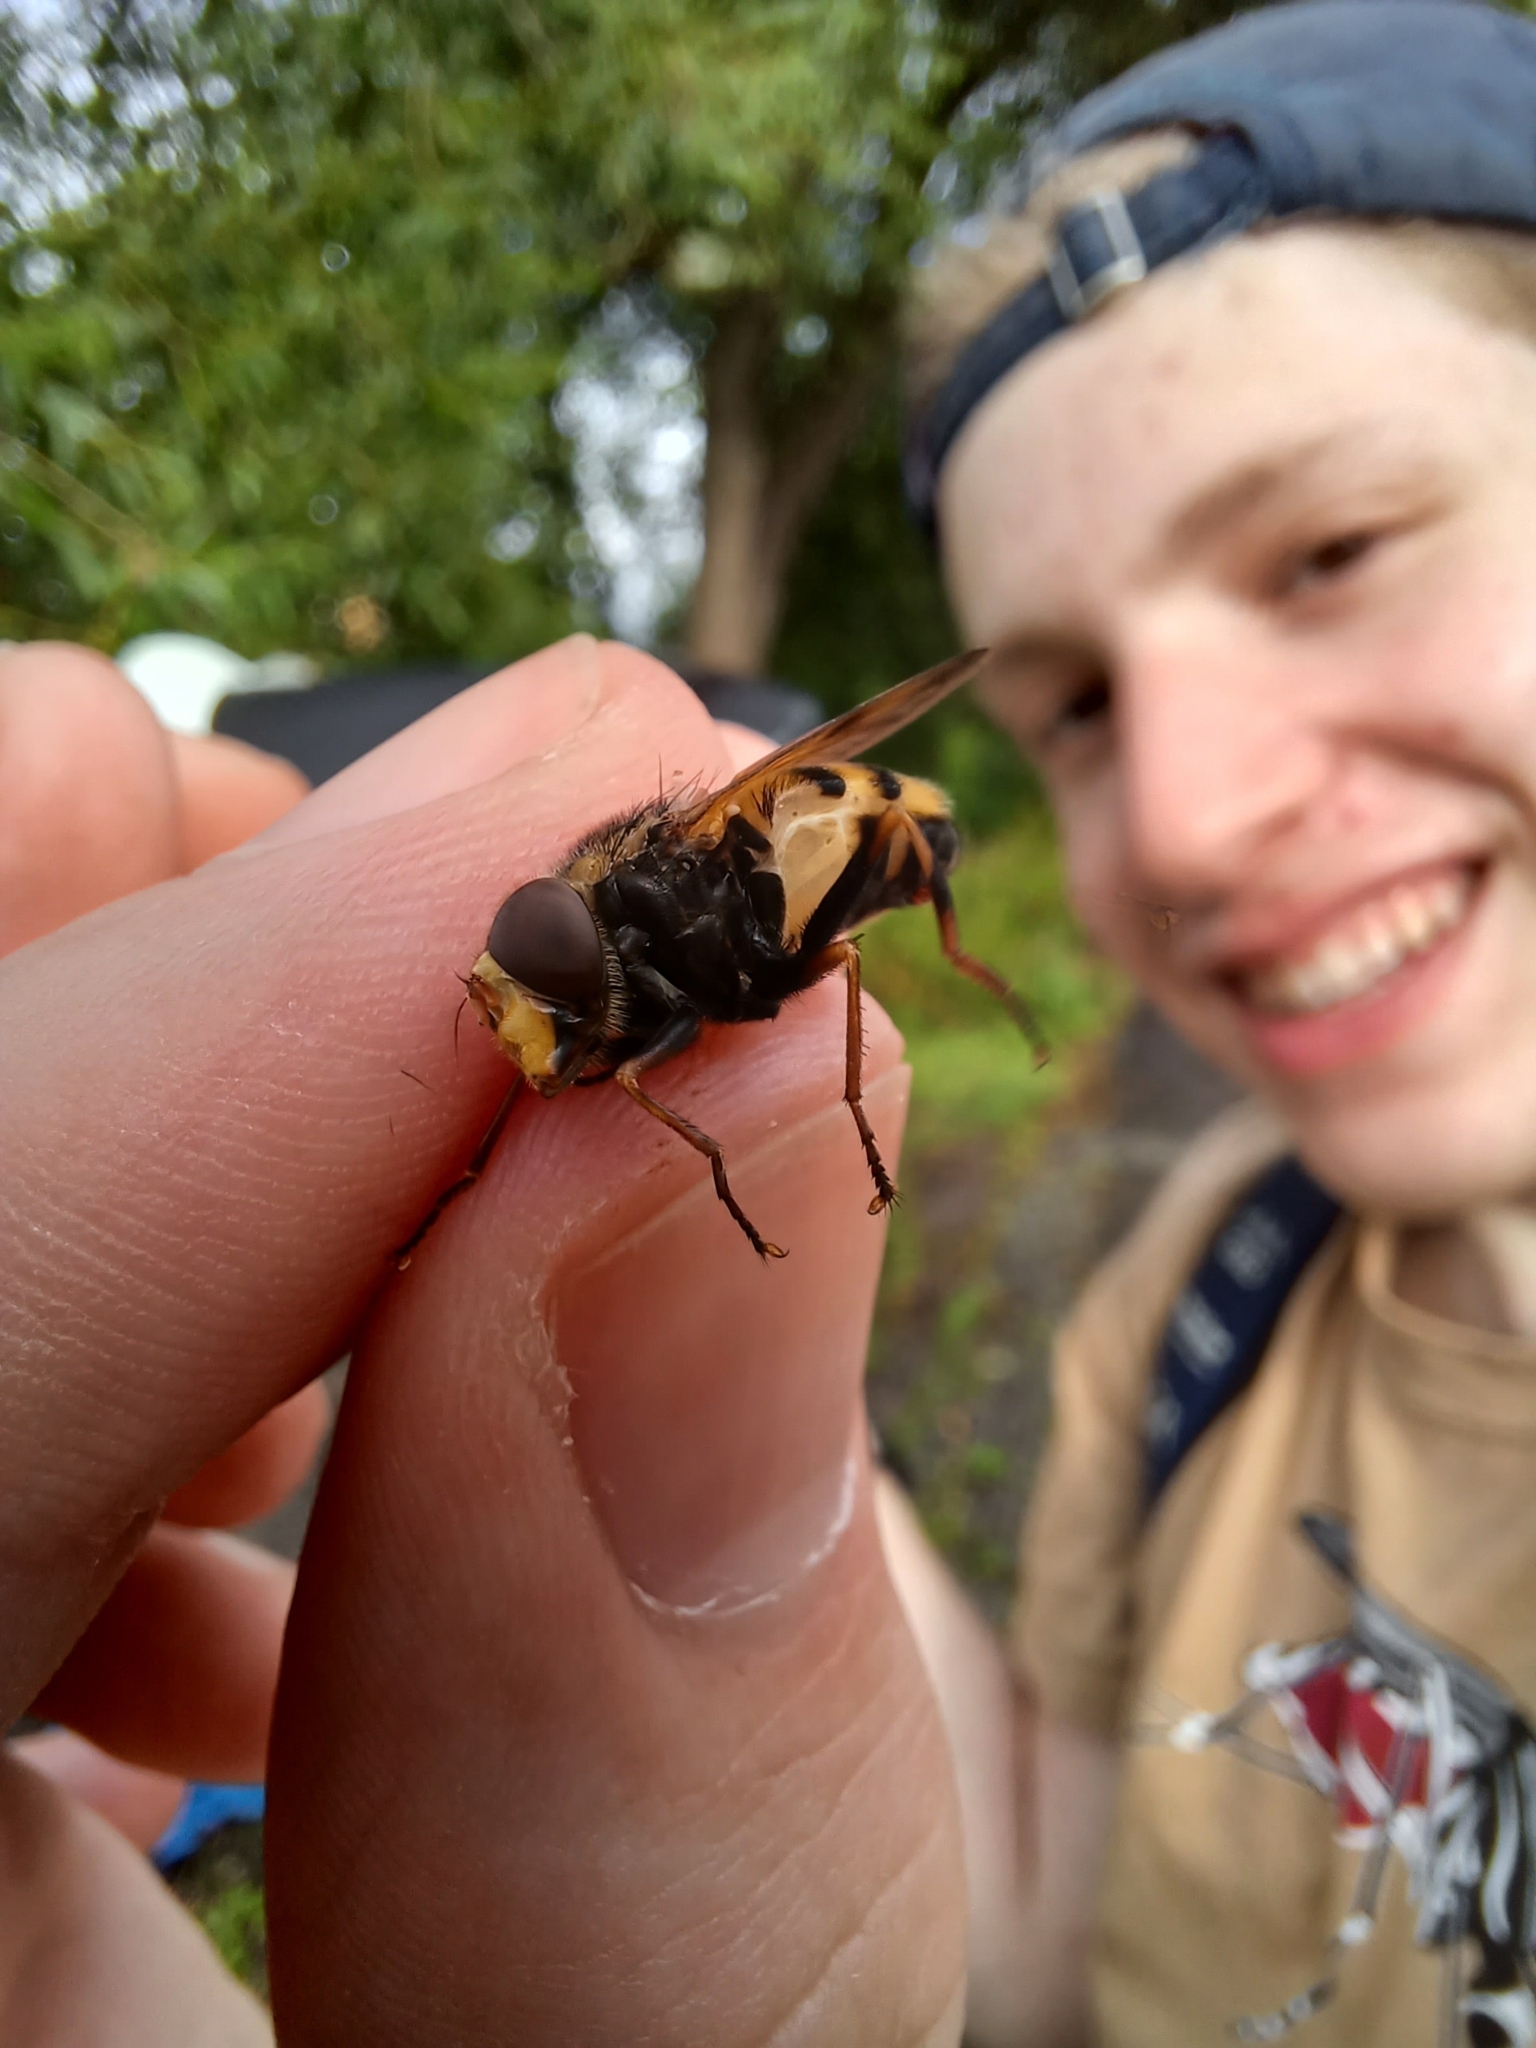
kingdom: Animalia
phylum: Arthropoda
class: Insecta
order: Diptera
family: Syrphidae
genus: Volucella
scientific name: Volucella inanis
